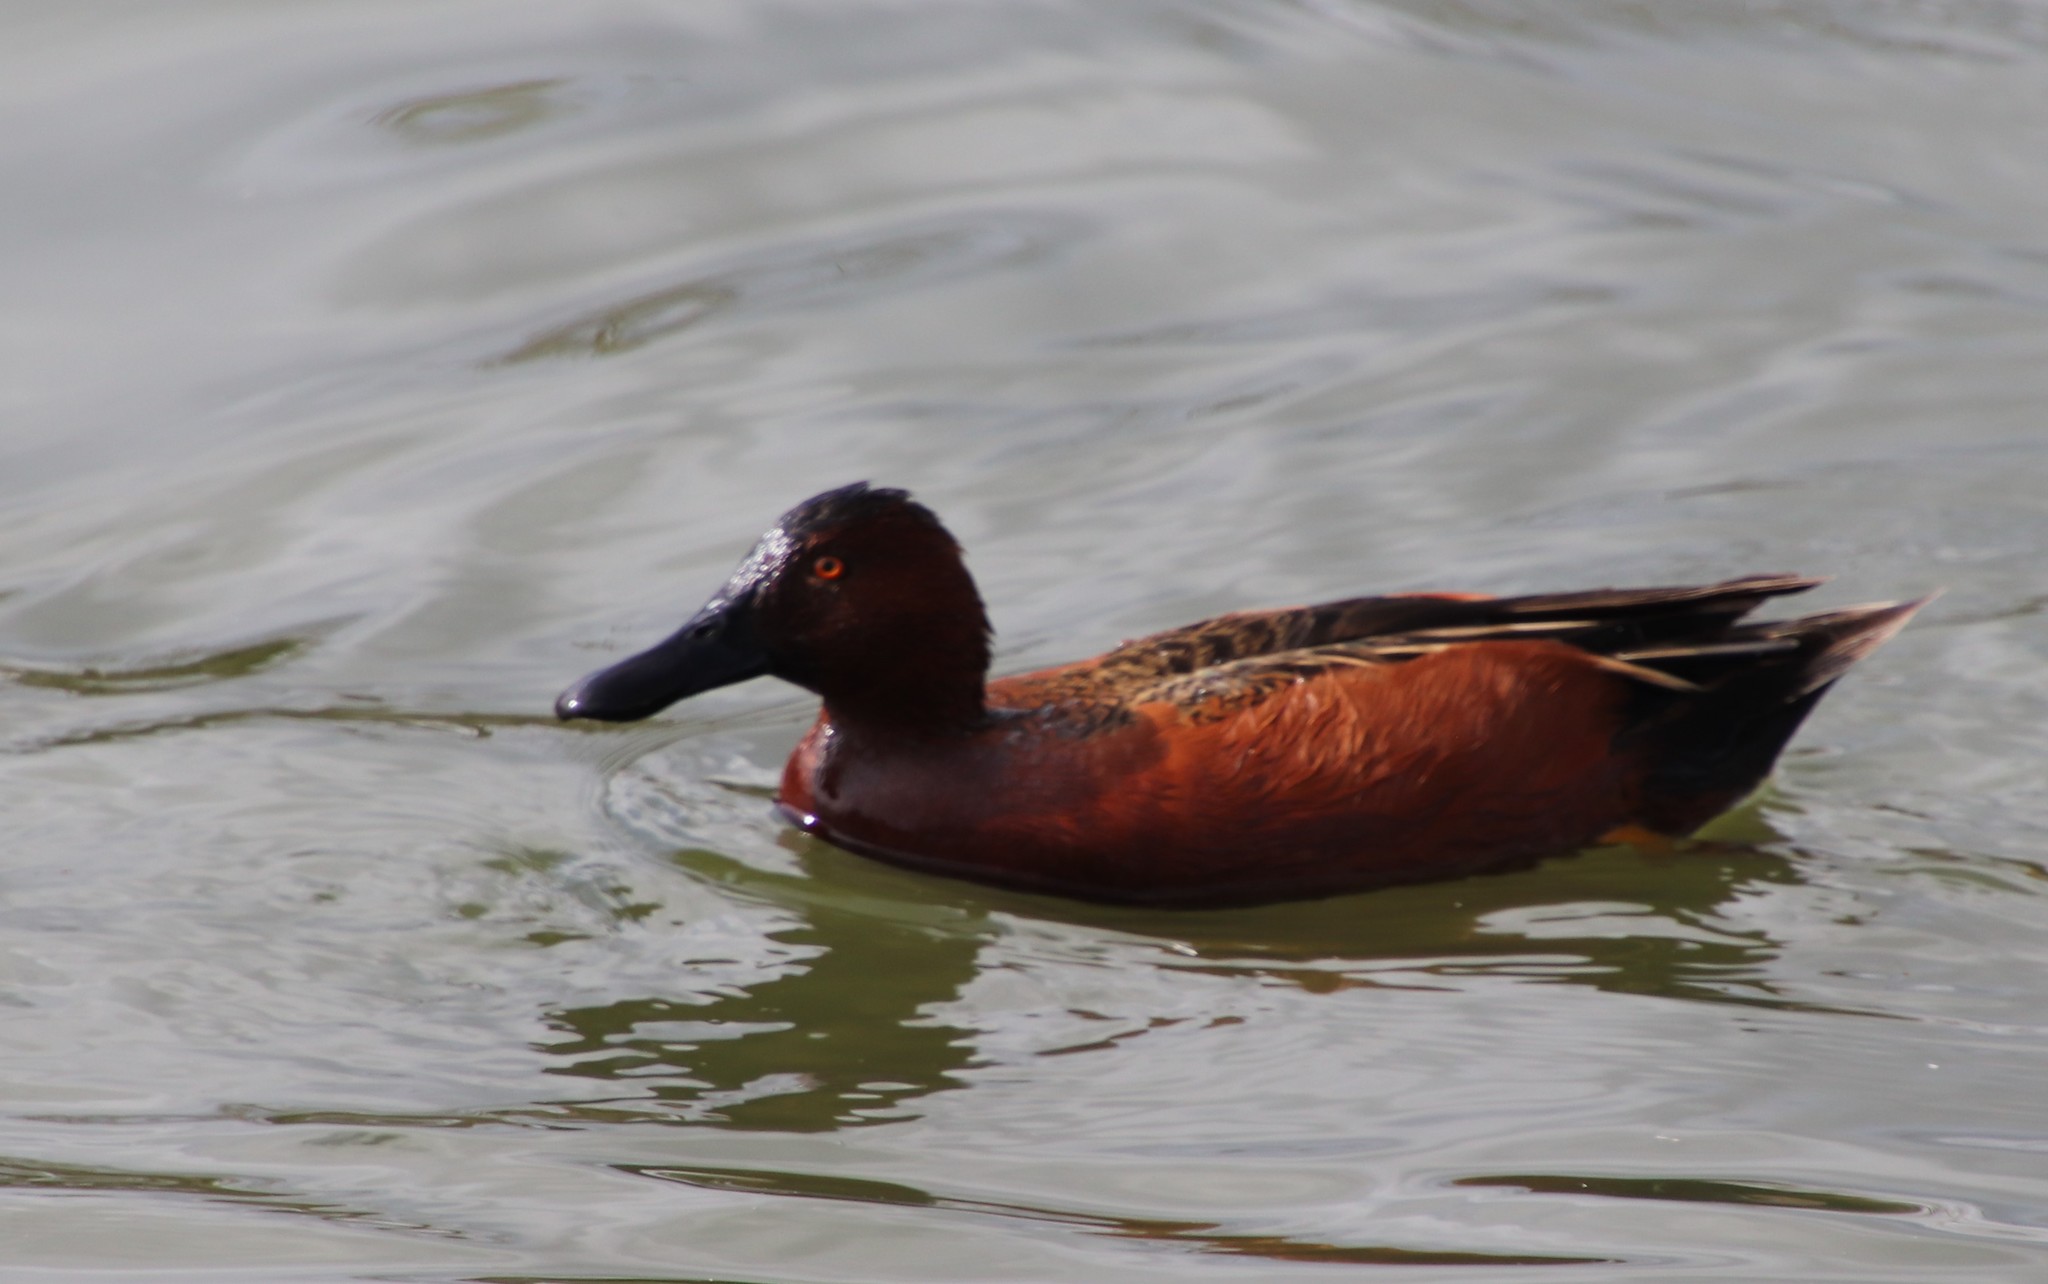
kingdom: Animalia
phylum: Chordata
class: Aves
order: Anseriformes
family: Anatidae
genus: Spatula
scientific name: Spatula cyanoptera
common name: Cinnamon teal
